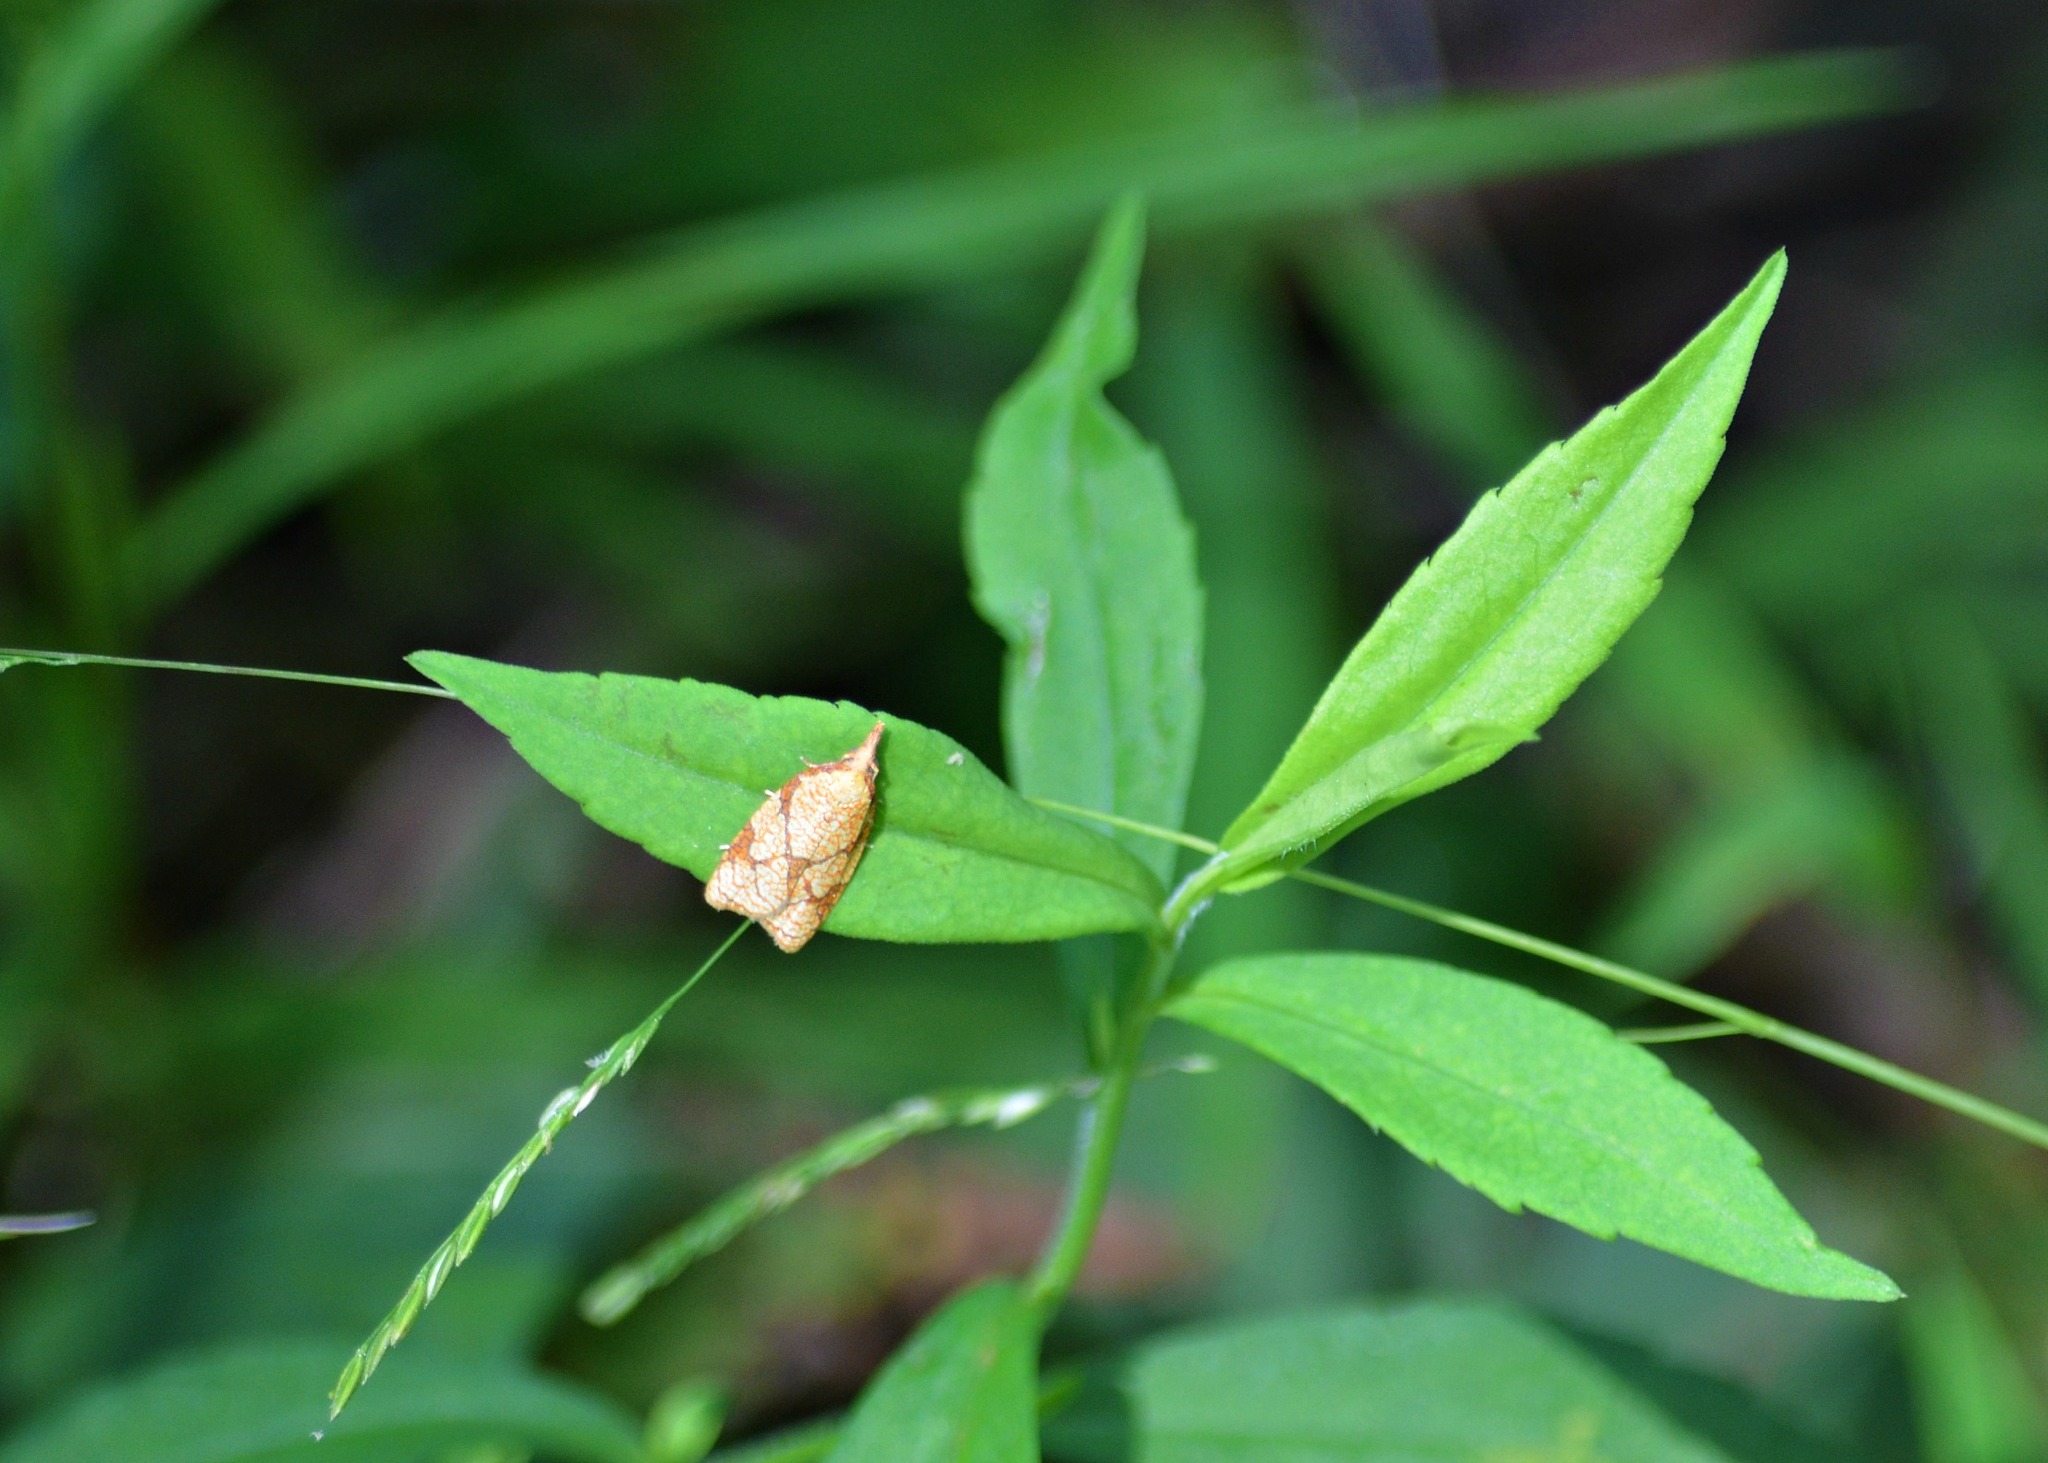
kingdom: Animalia
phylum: Arthropoda
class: Insecta
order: Lepidoptera
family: Tortricidae
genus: Cenopis
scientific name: Cenopis reticulatana
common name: Reticulated fruitworm moth
